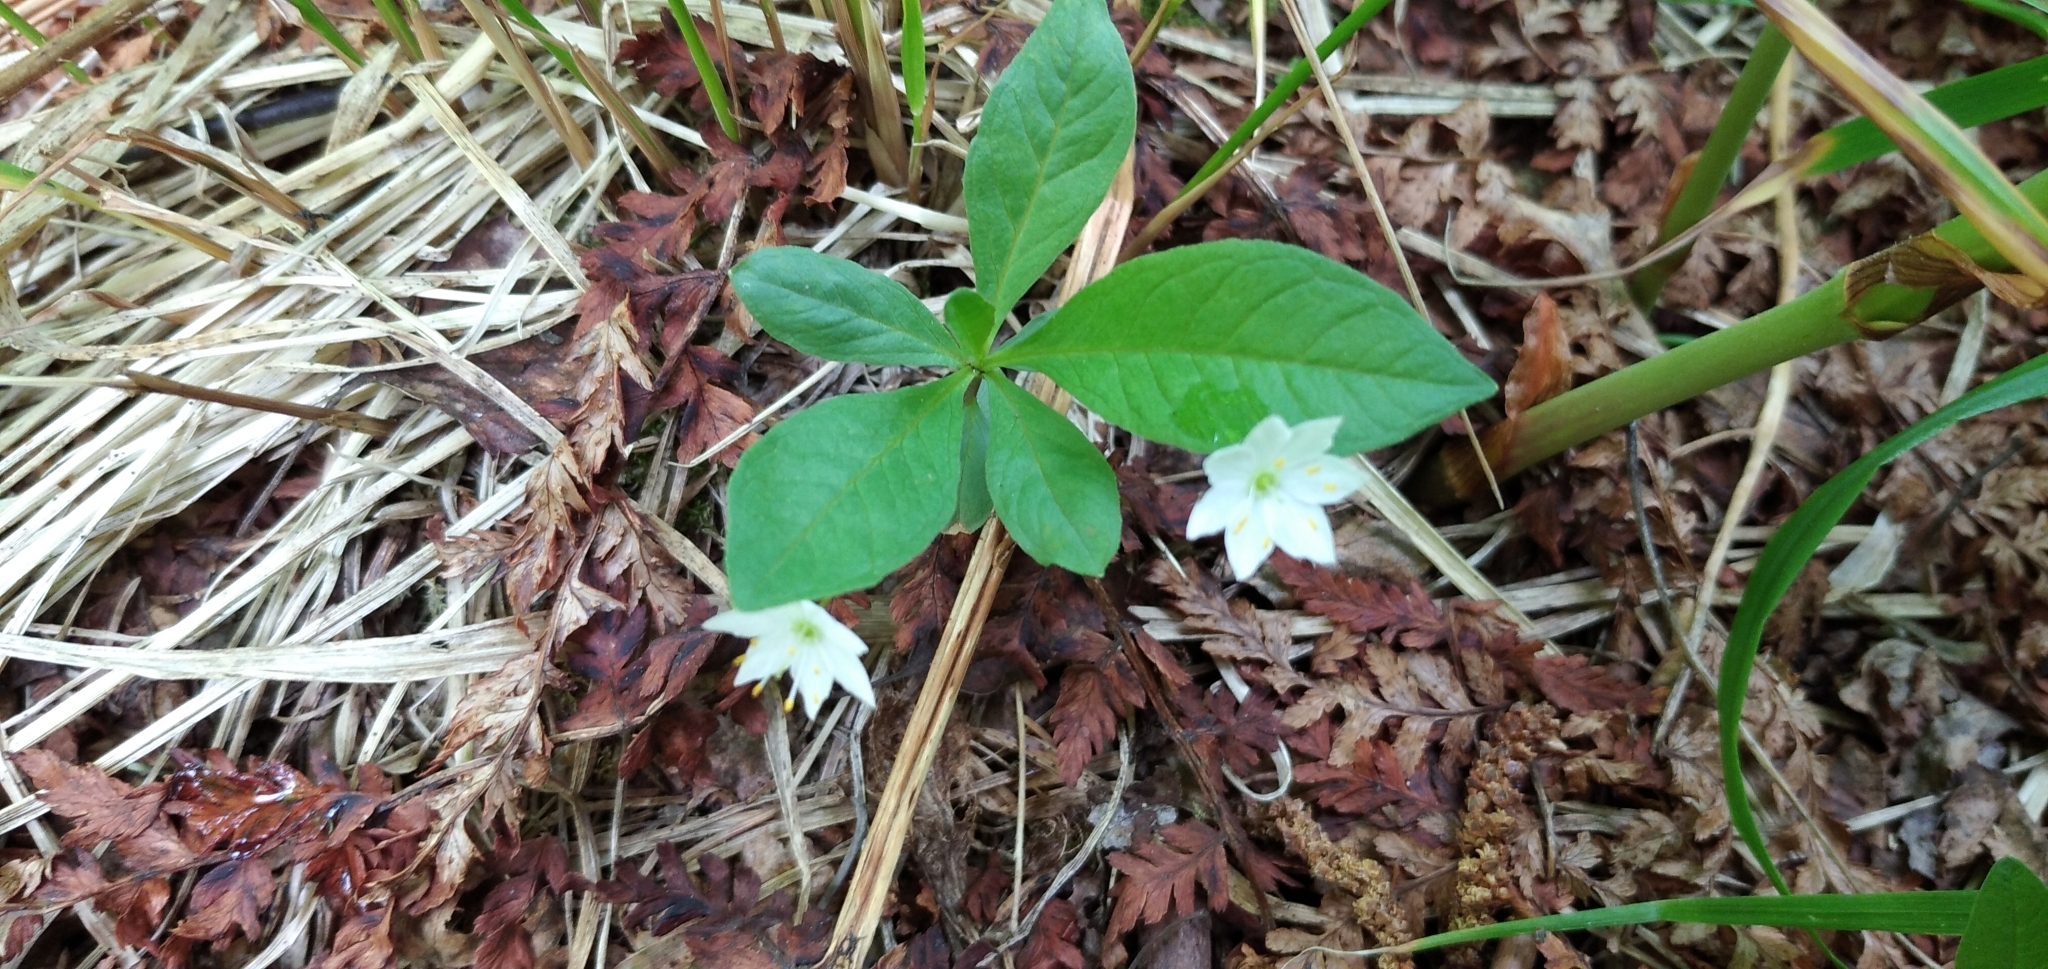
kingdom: Plantae
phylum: Tracheophyta
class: Magnoliopsida
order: Ericales
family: Primulaceae
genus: Lysimachia
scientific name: Lysimachia europaea
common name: Arctic starflower
